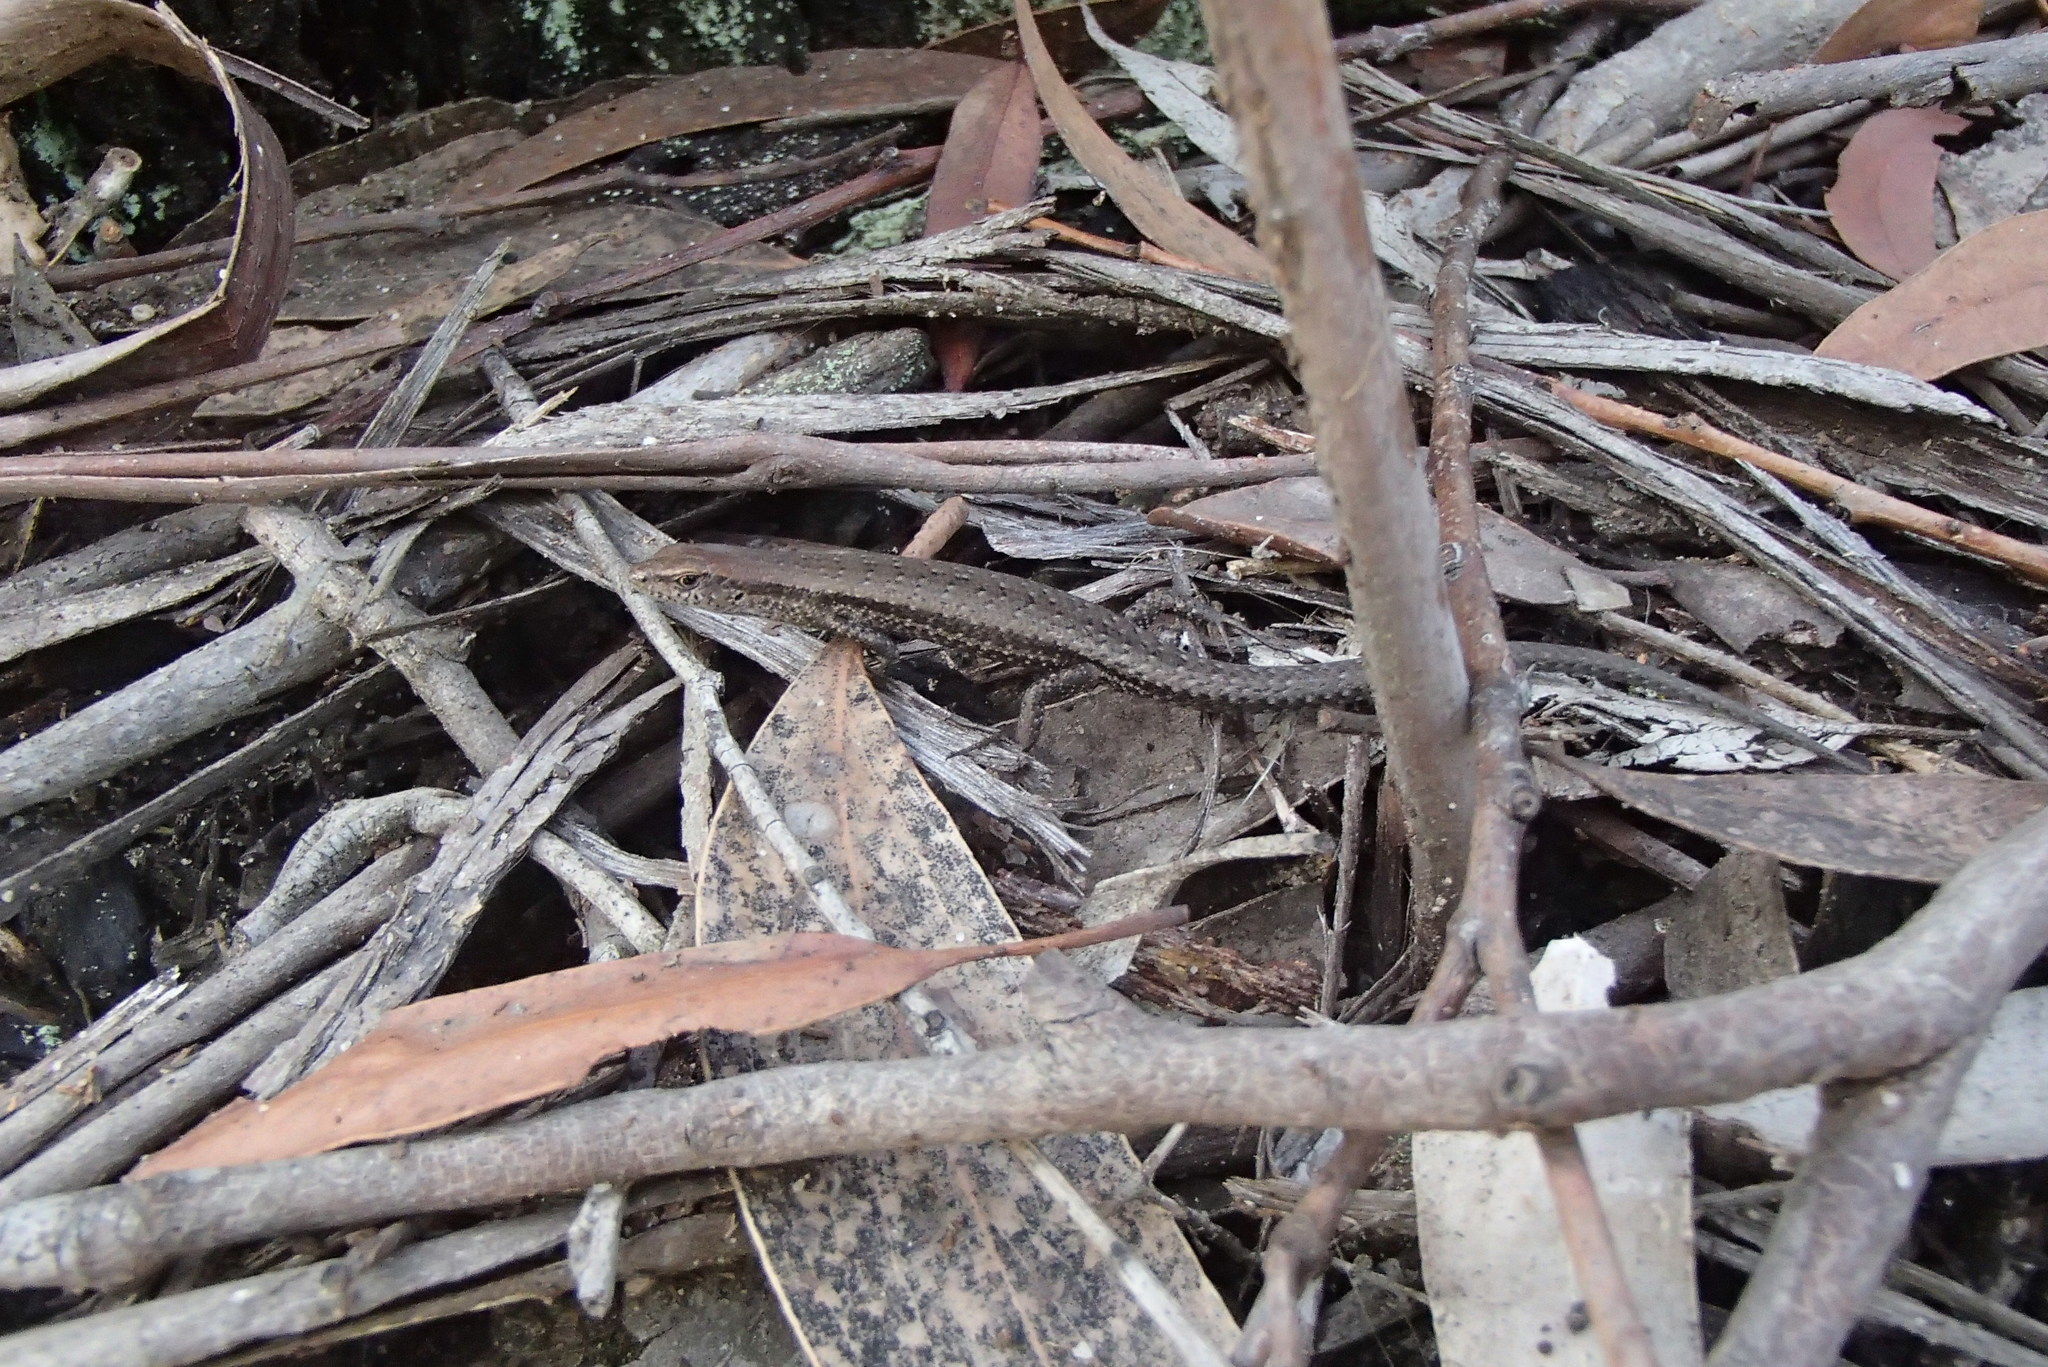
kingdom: Animalia
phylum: Chordata
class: Squamata
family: Scincidae
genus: Lampropholis
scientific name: Lampropholis guichenoti
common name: Garden skink
